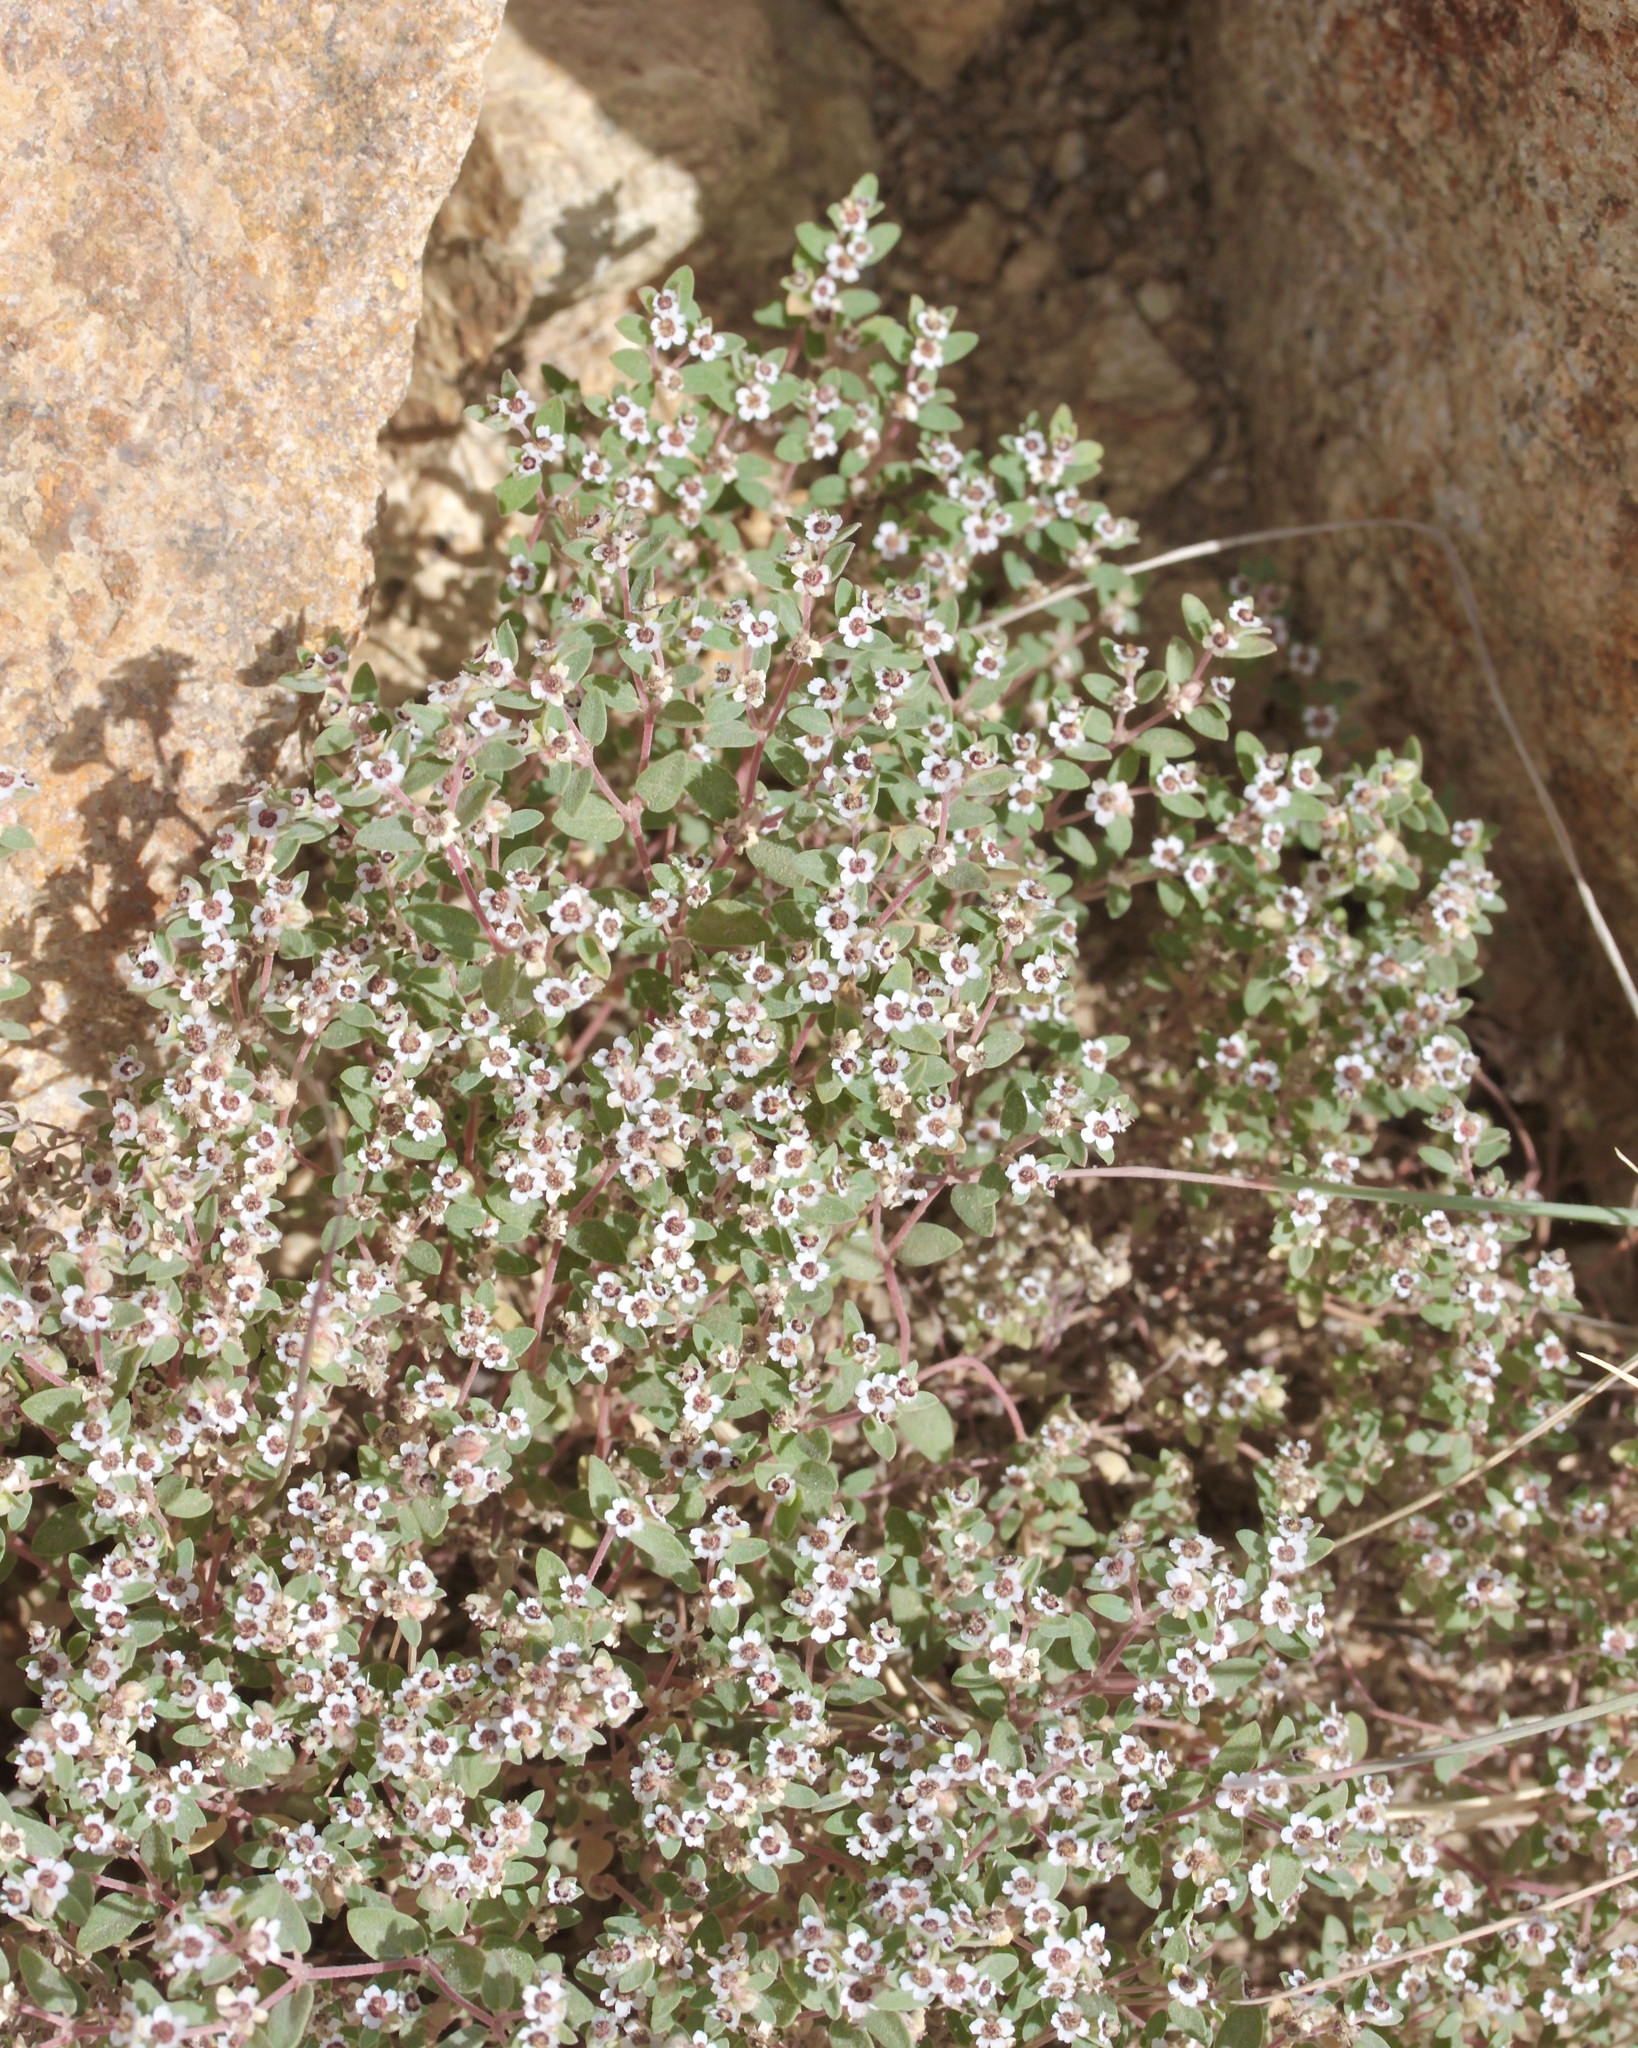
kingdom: Plantae
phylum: Tracheophyta
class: Magnoliopsida
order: Malpighiales
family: Euphorbiaceae
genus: Euphorbia
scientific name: Euphorbia melanadenia
